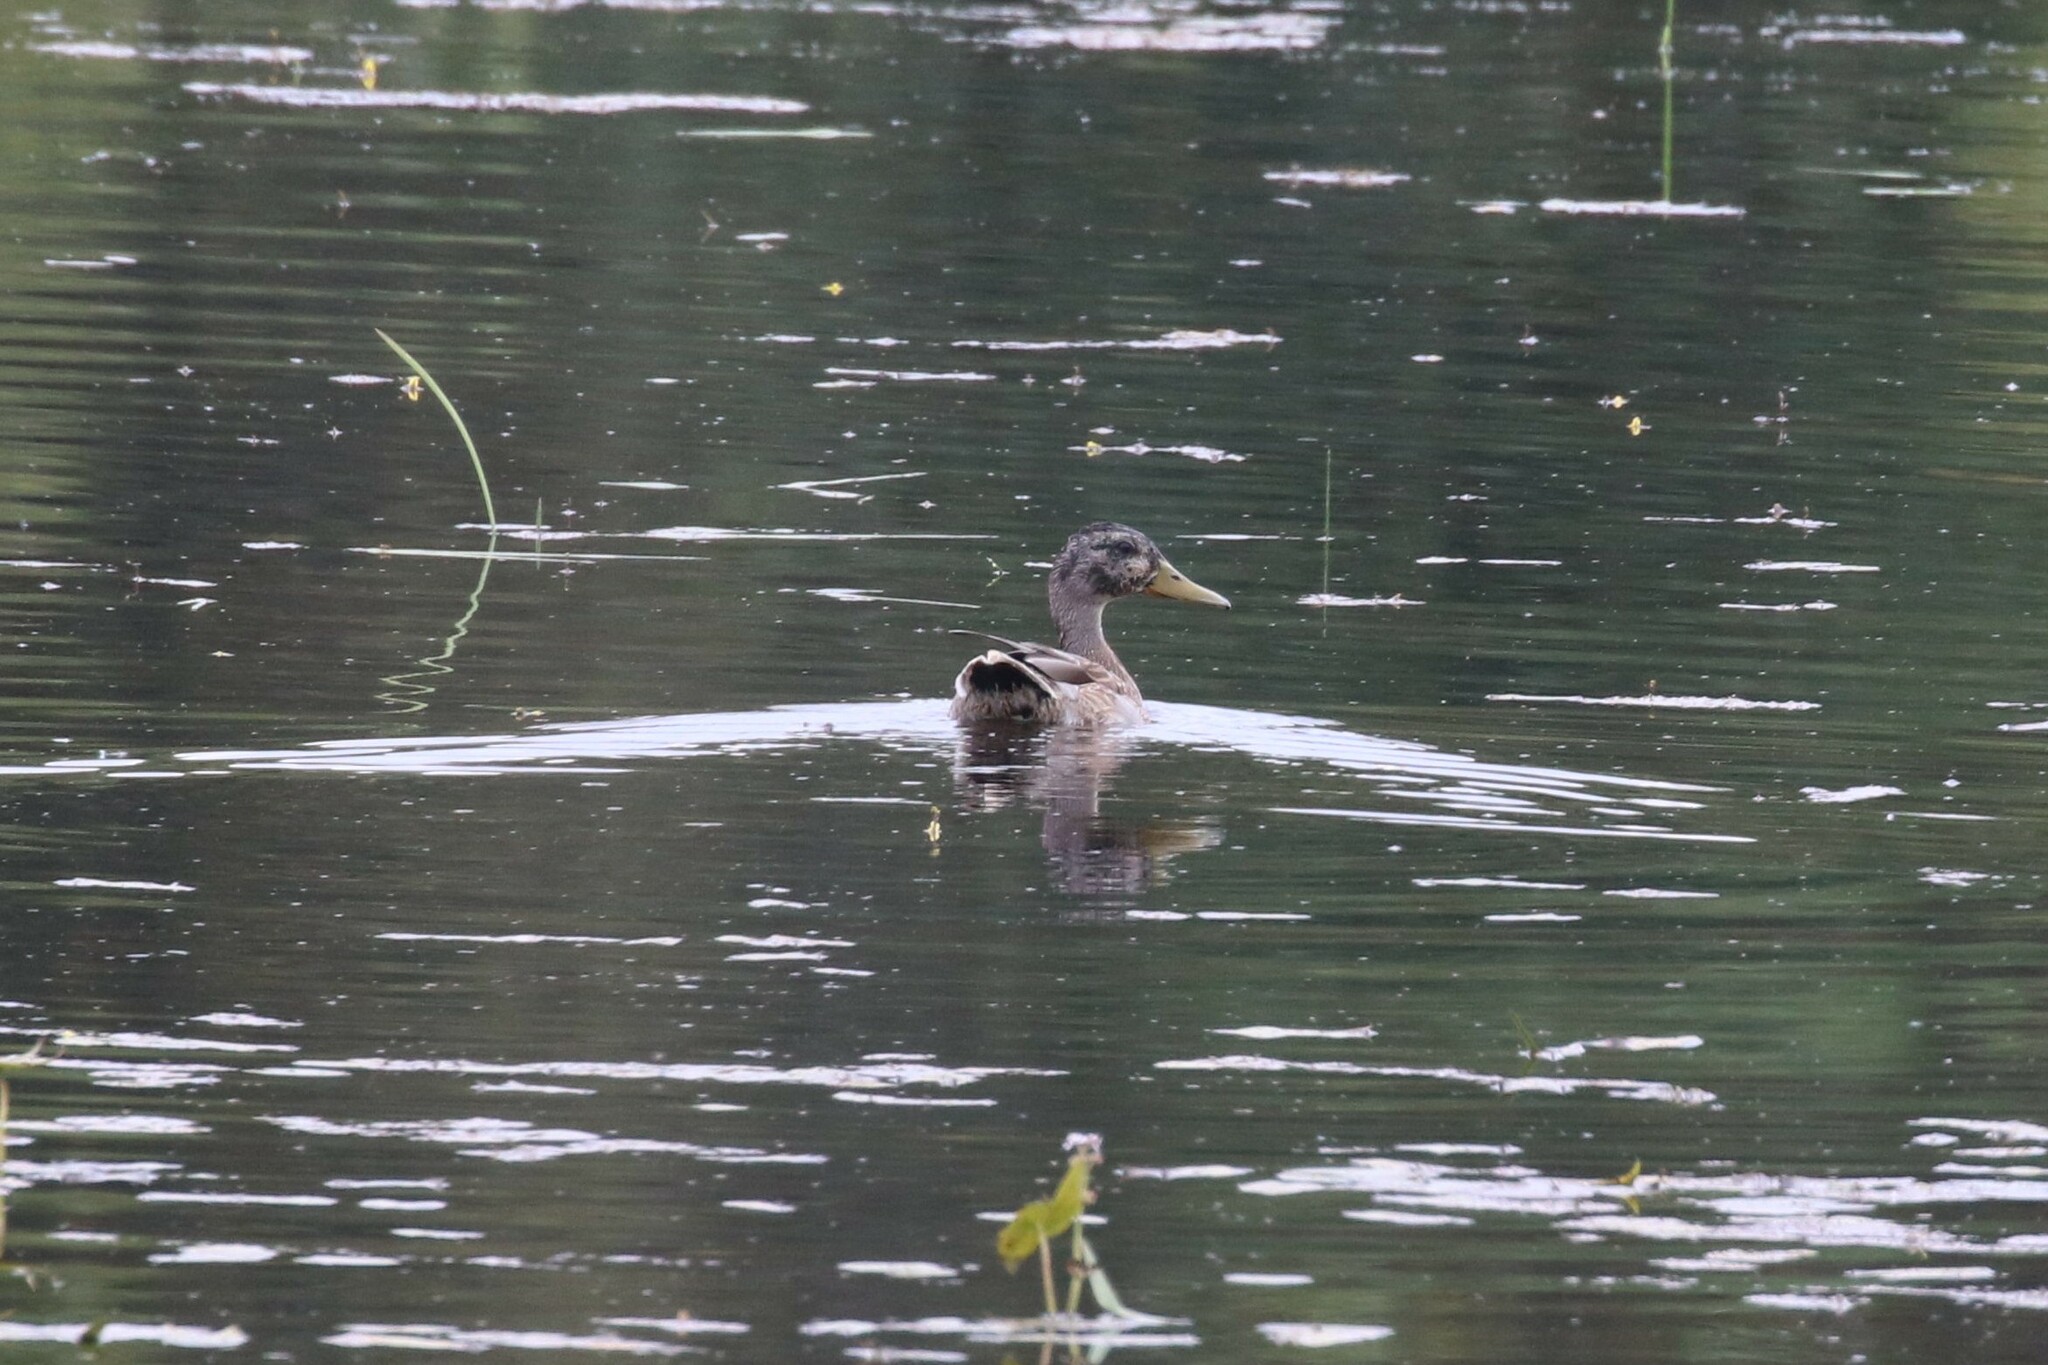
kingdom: Animalia
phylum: Chordata
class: Aves
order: Anseriformes
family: Anatidae
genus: Anas
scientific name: Anas platyrhynchos
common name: Mallard
